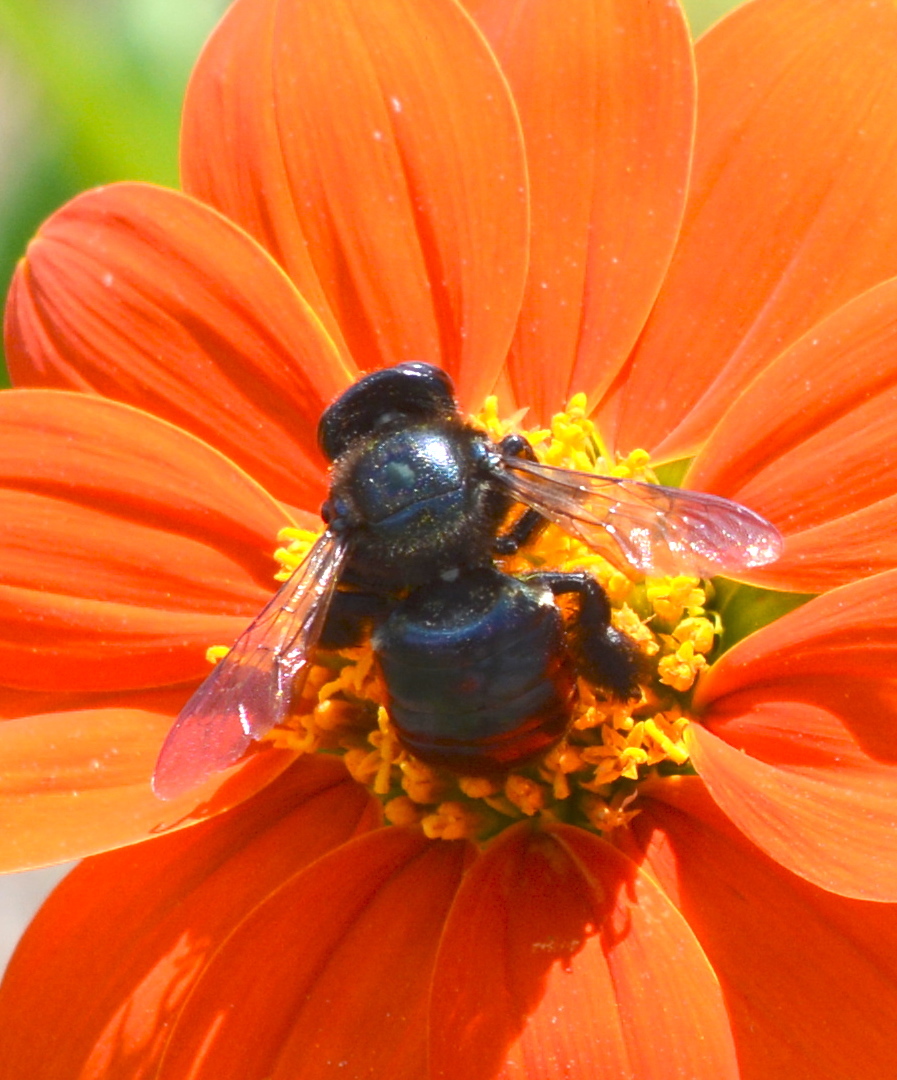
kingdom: Animalia
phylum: Arthropoda
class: Insecta
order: Hymenoptera
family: Apidae
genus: Xylocopa
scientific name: Xylocopa micans
